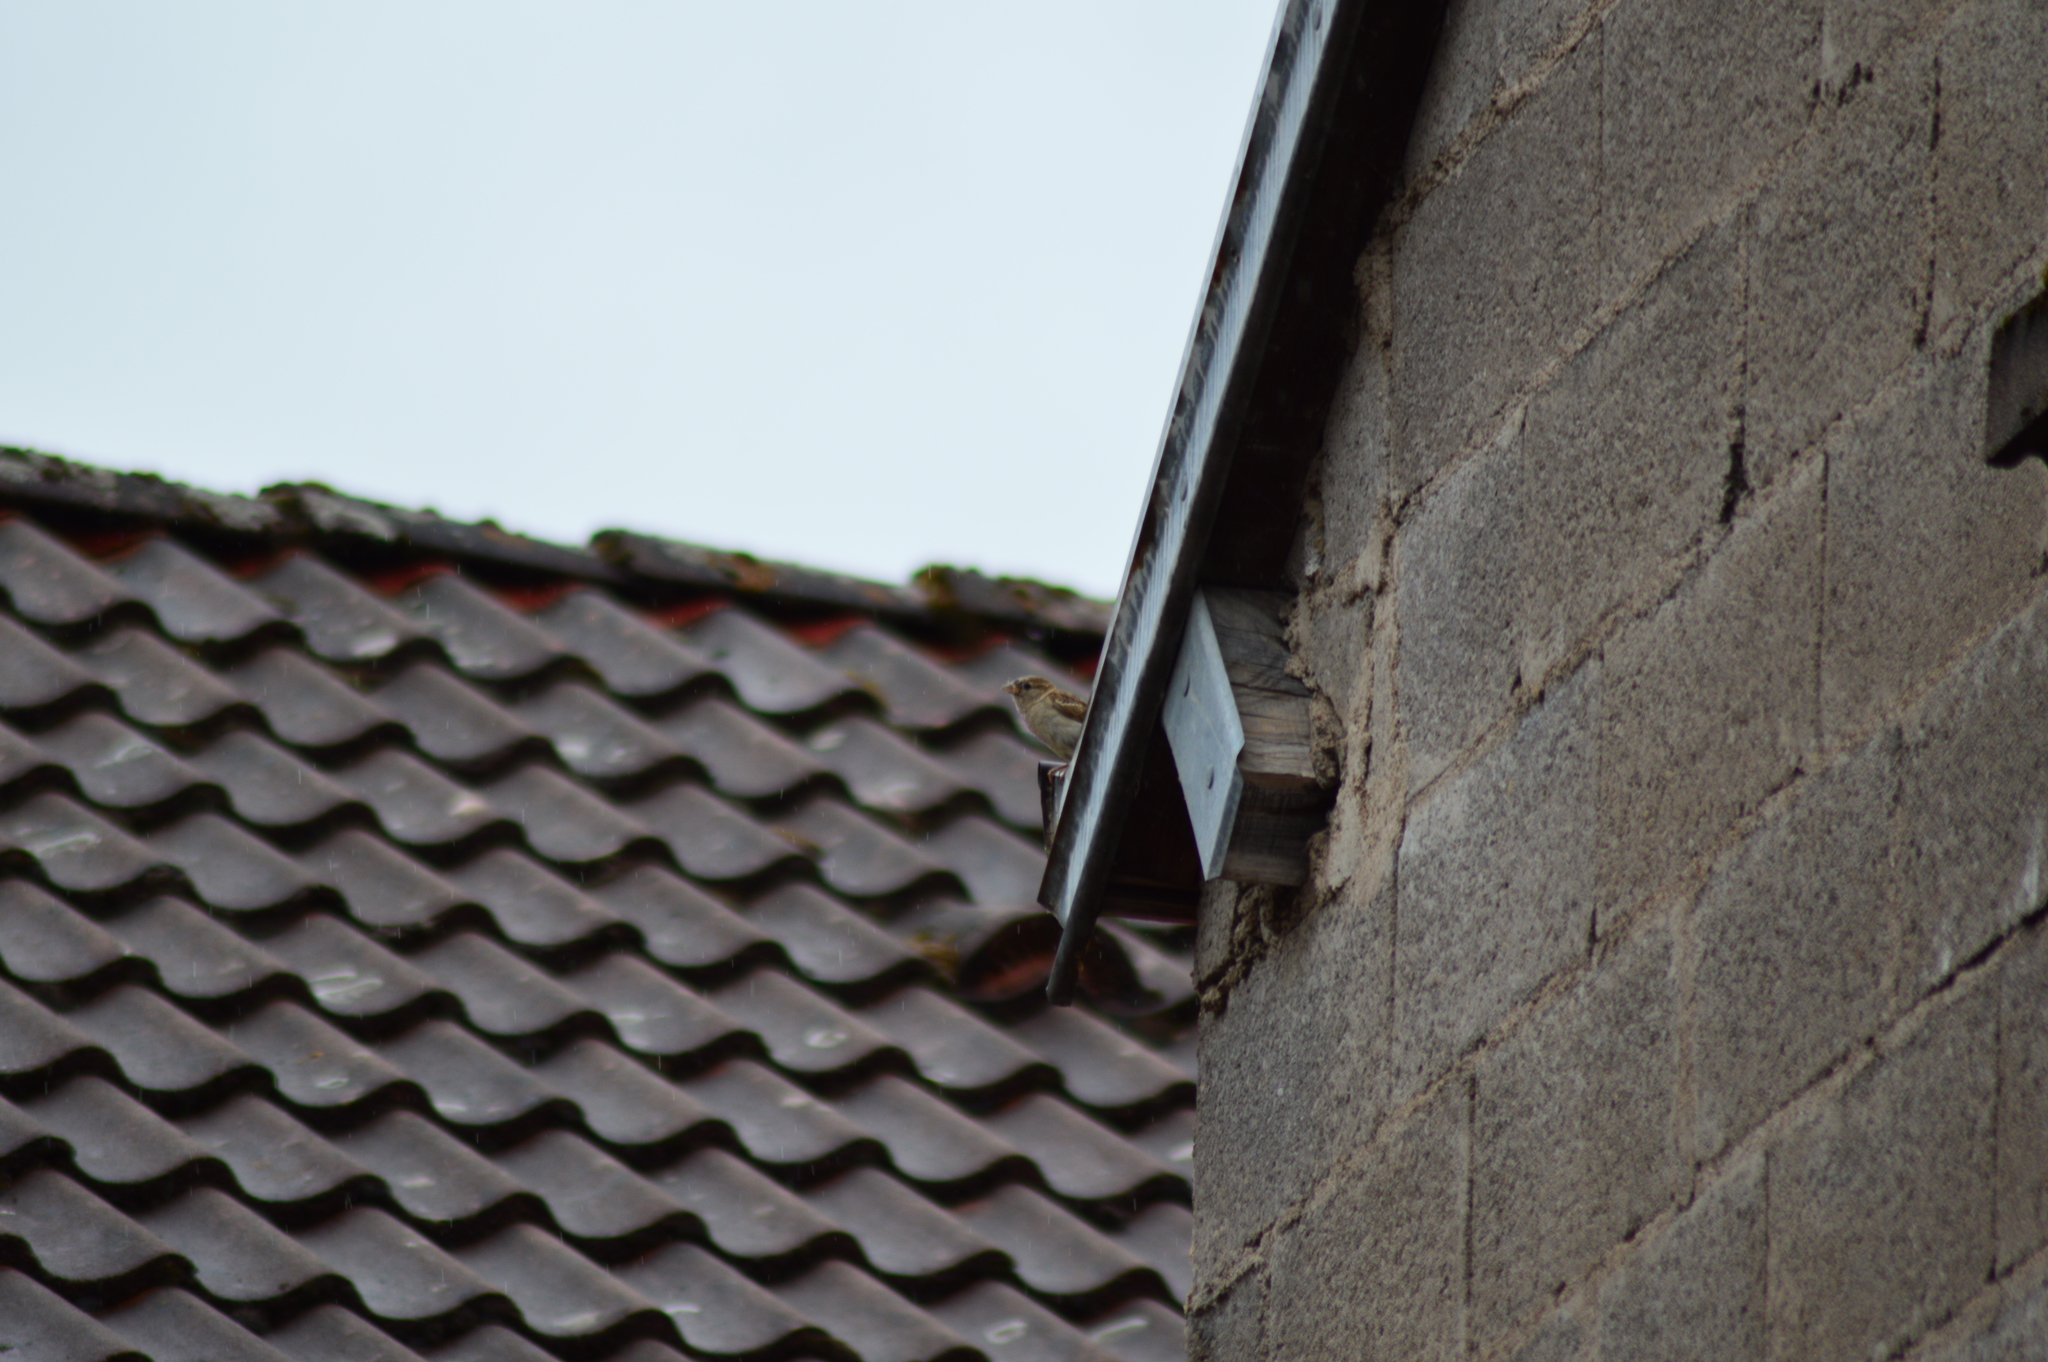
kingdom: Animalia
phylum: Chordata
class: Aves
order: Passeriformes
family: Passeridae
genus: Passer
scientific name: Passer domesticus
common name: House sparrow
